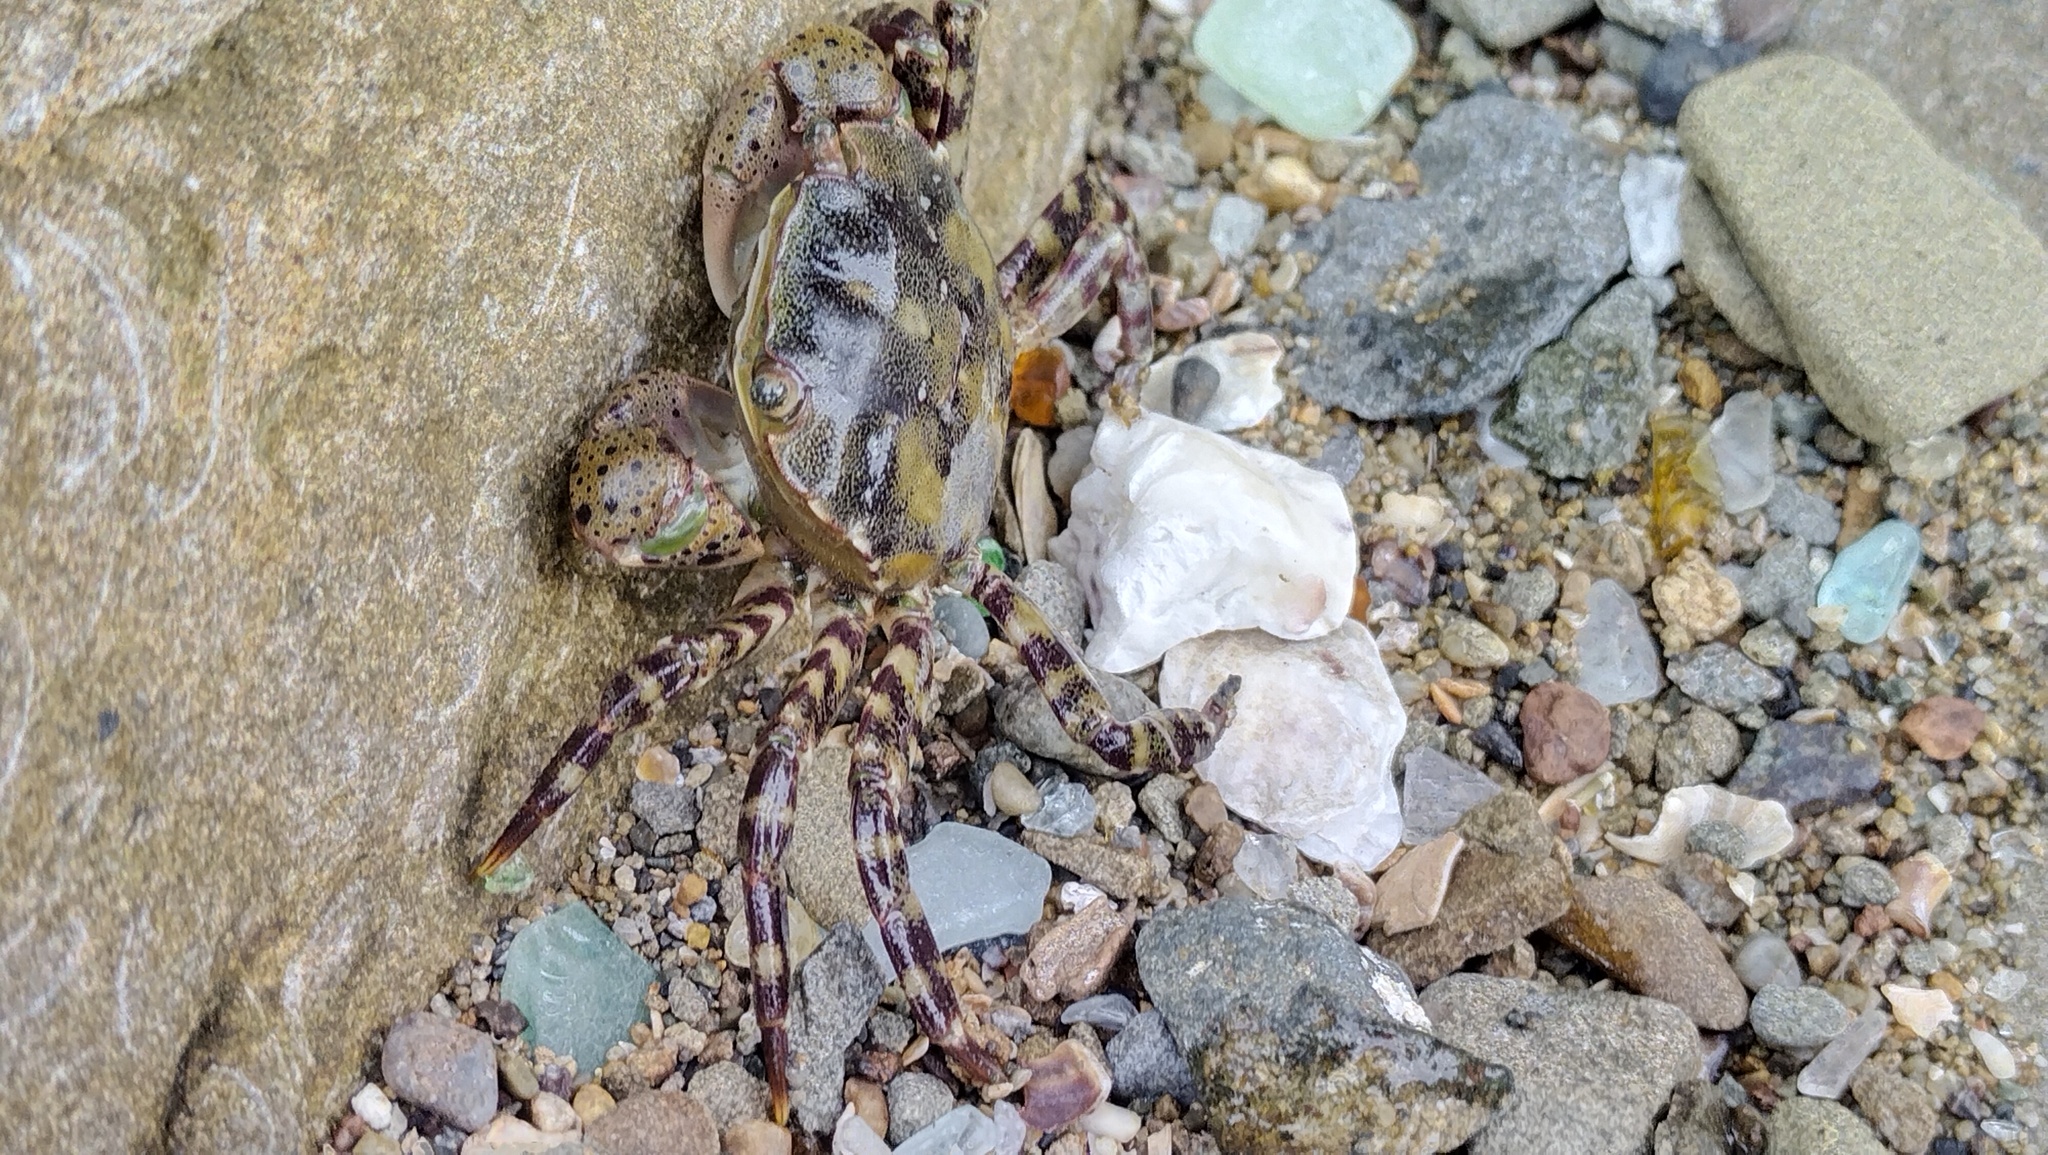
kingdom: Animalia
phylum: Arthropoda
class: Malacostraca
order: Decapoda
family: Varunidae
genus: Hemigrapsus
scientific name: Hemigrapsus sanguineus
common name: Asian shore crab
